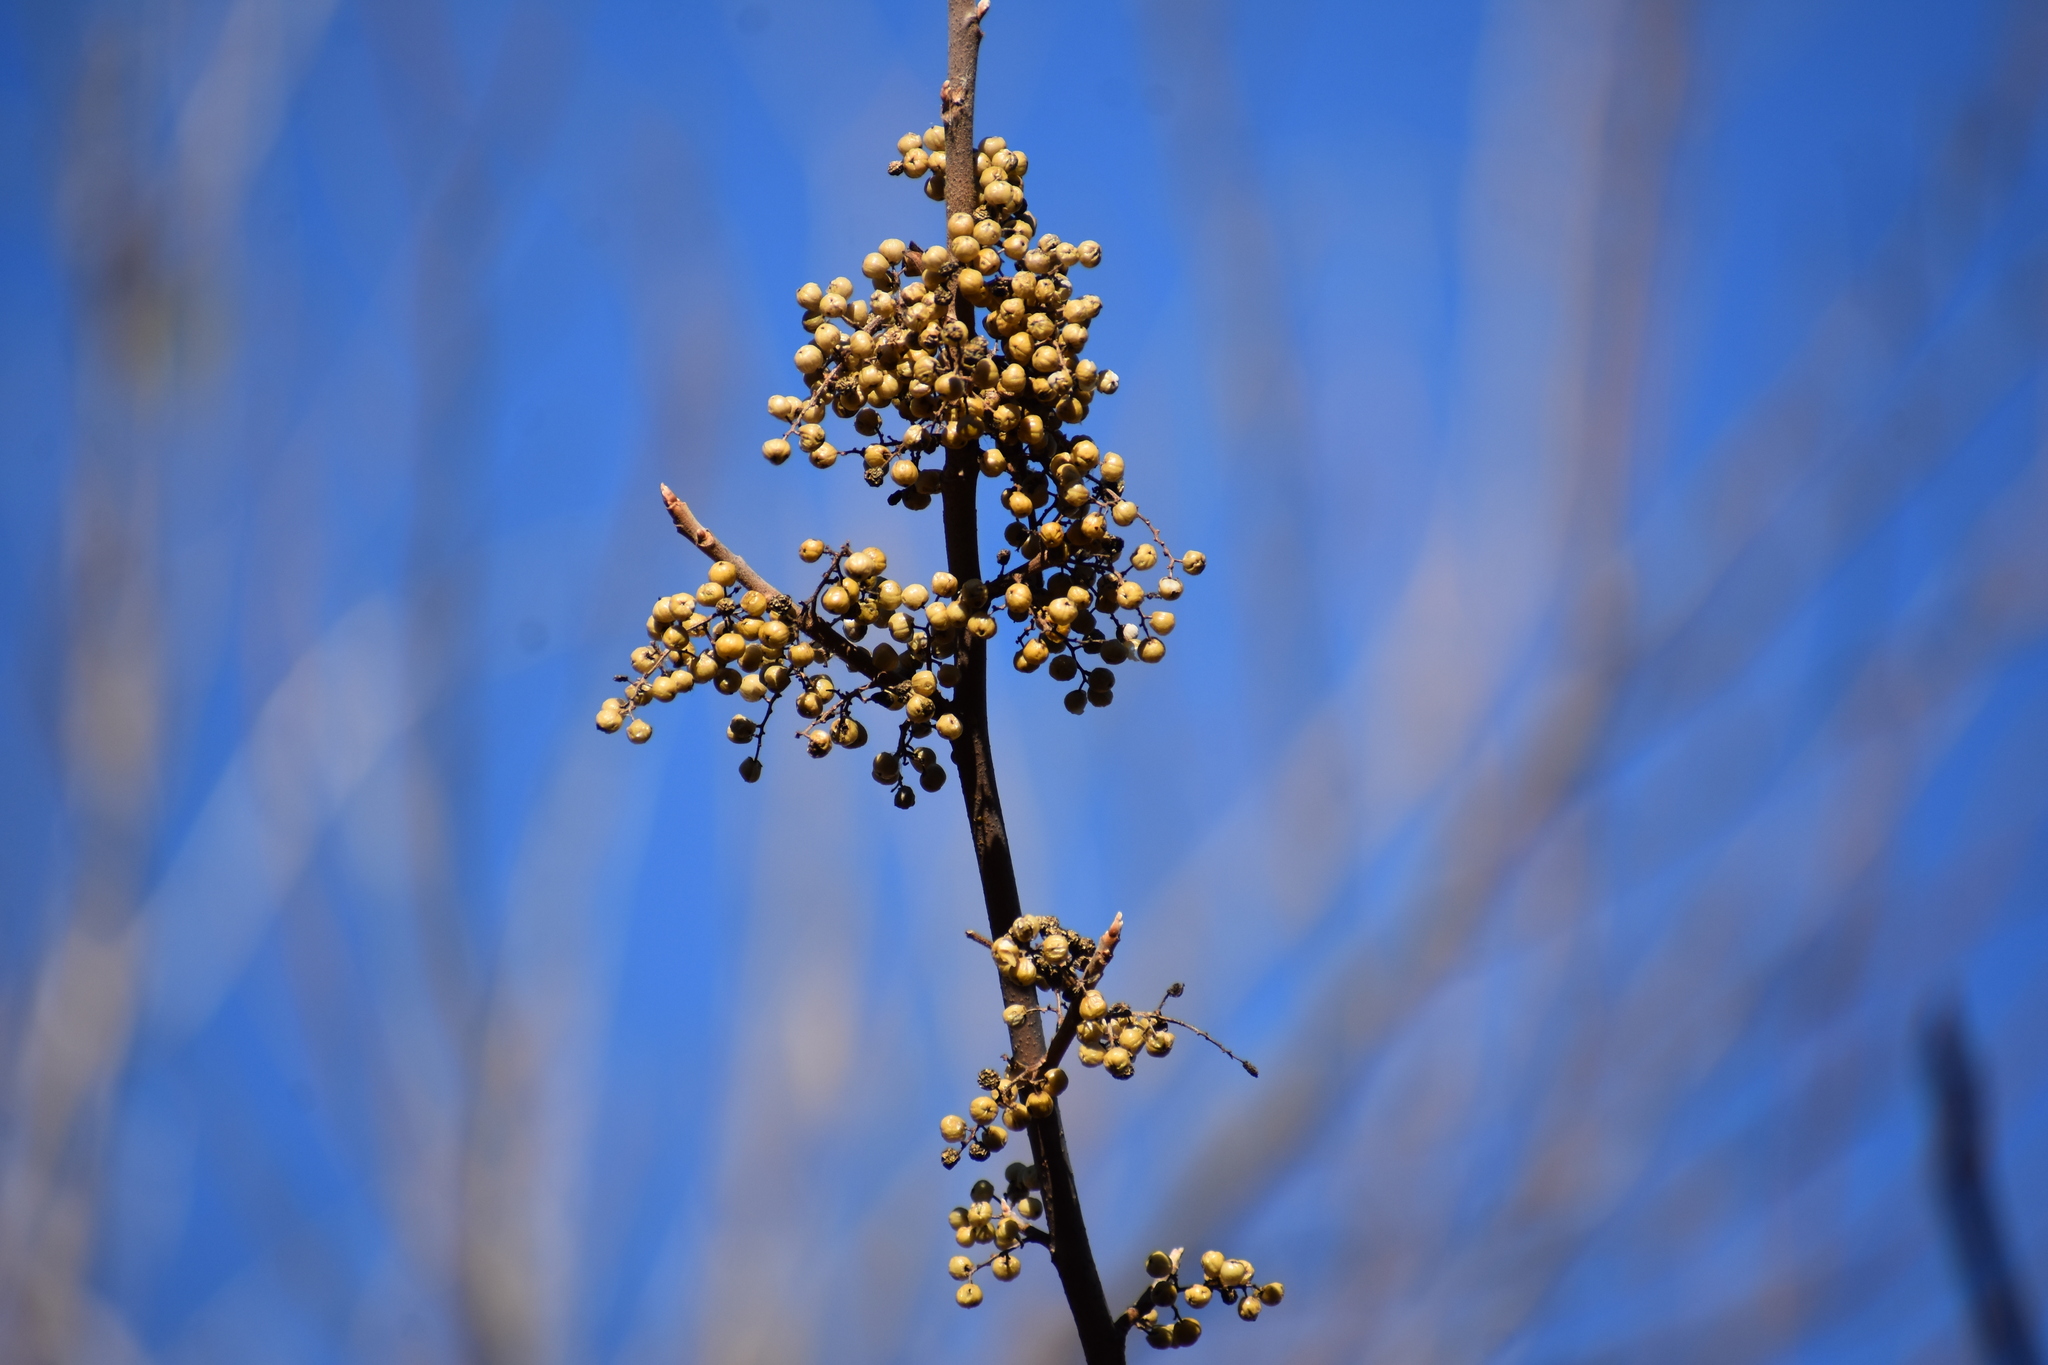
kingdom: Plantae
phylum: Tracheophyta
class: Magnoliopsida
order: Sapindales
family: Anacardiaceae
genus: Toxicodendron
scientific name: Toxicodendron radicans
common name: Poison ivy
